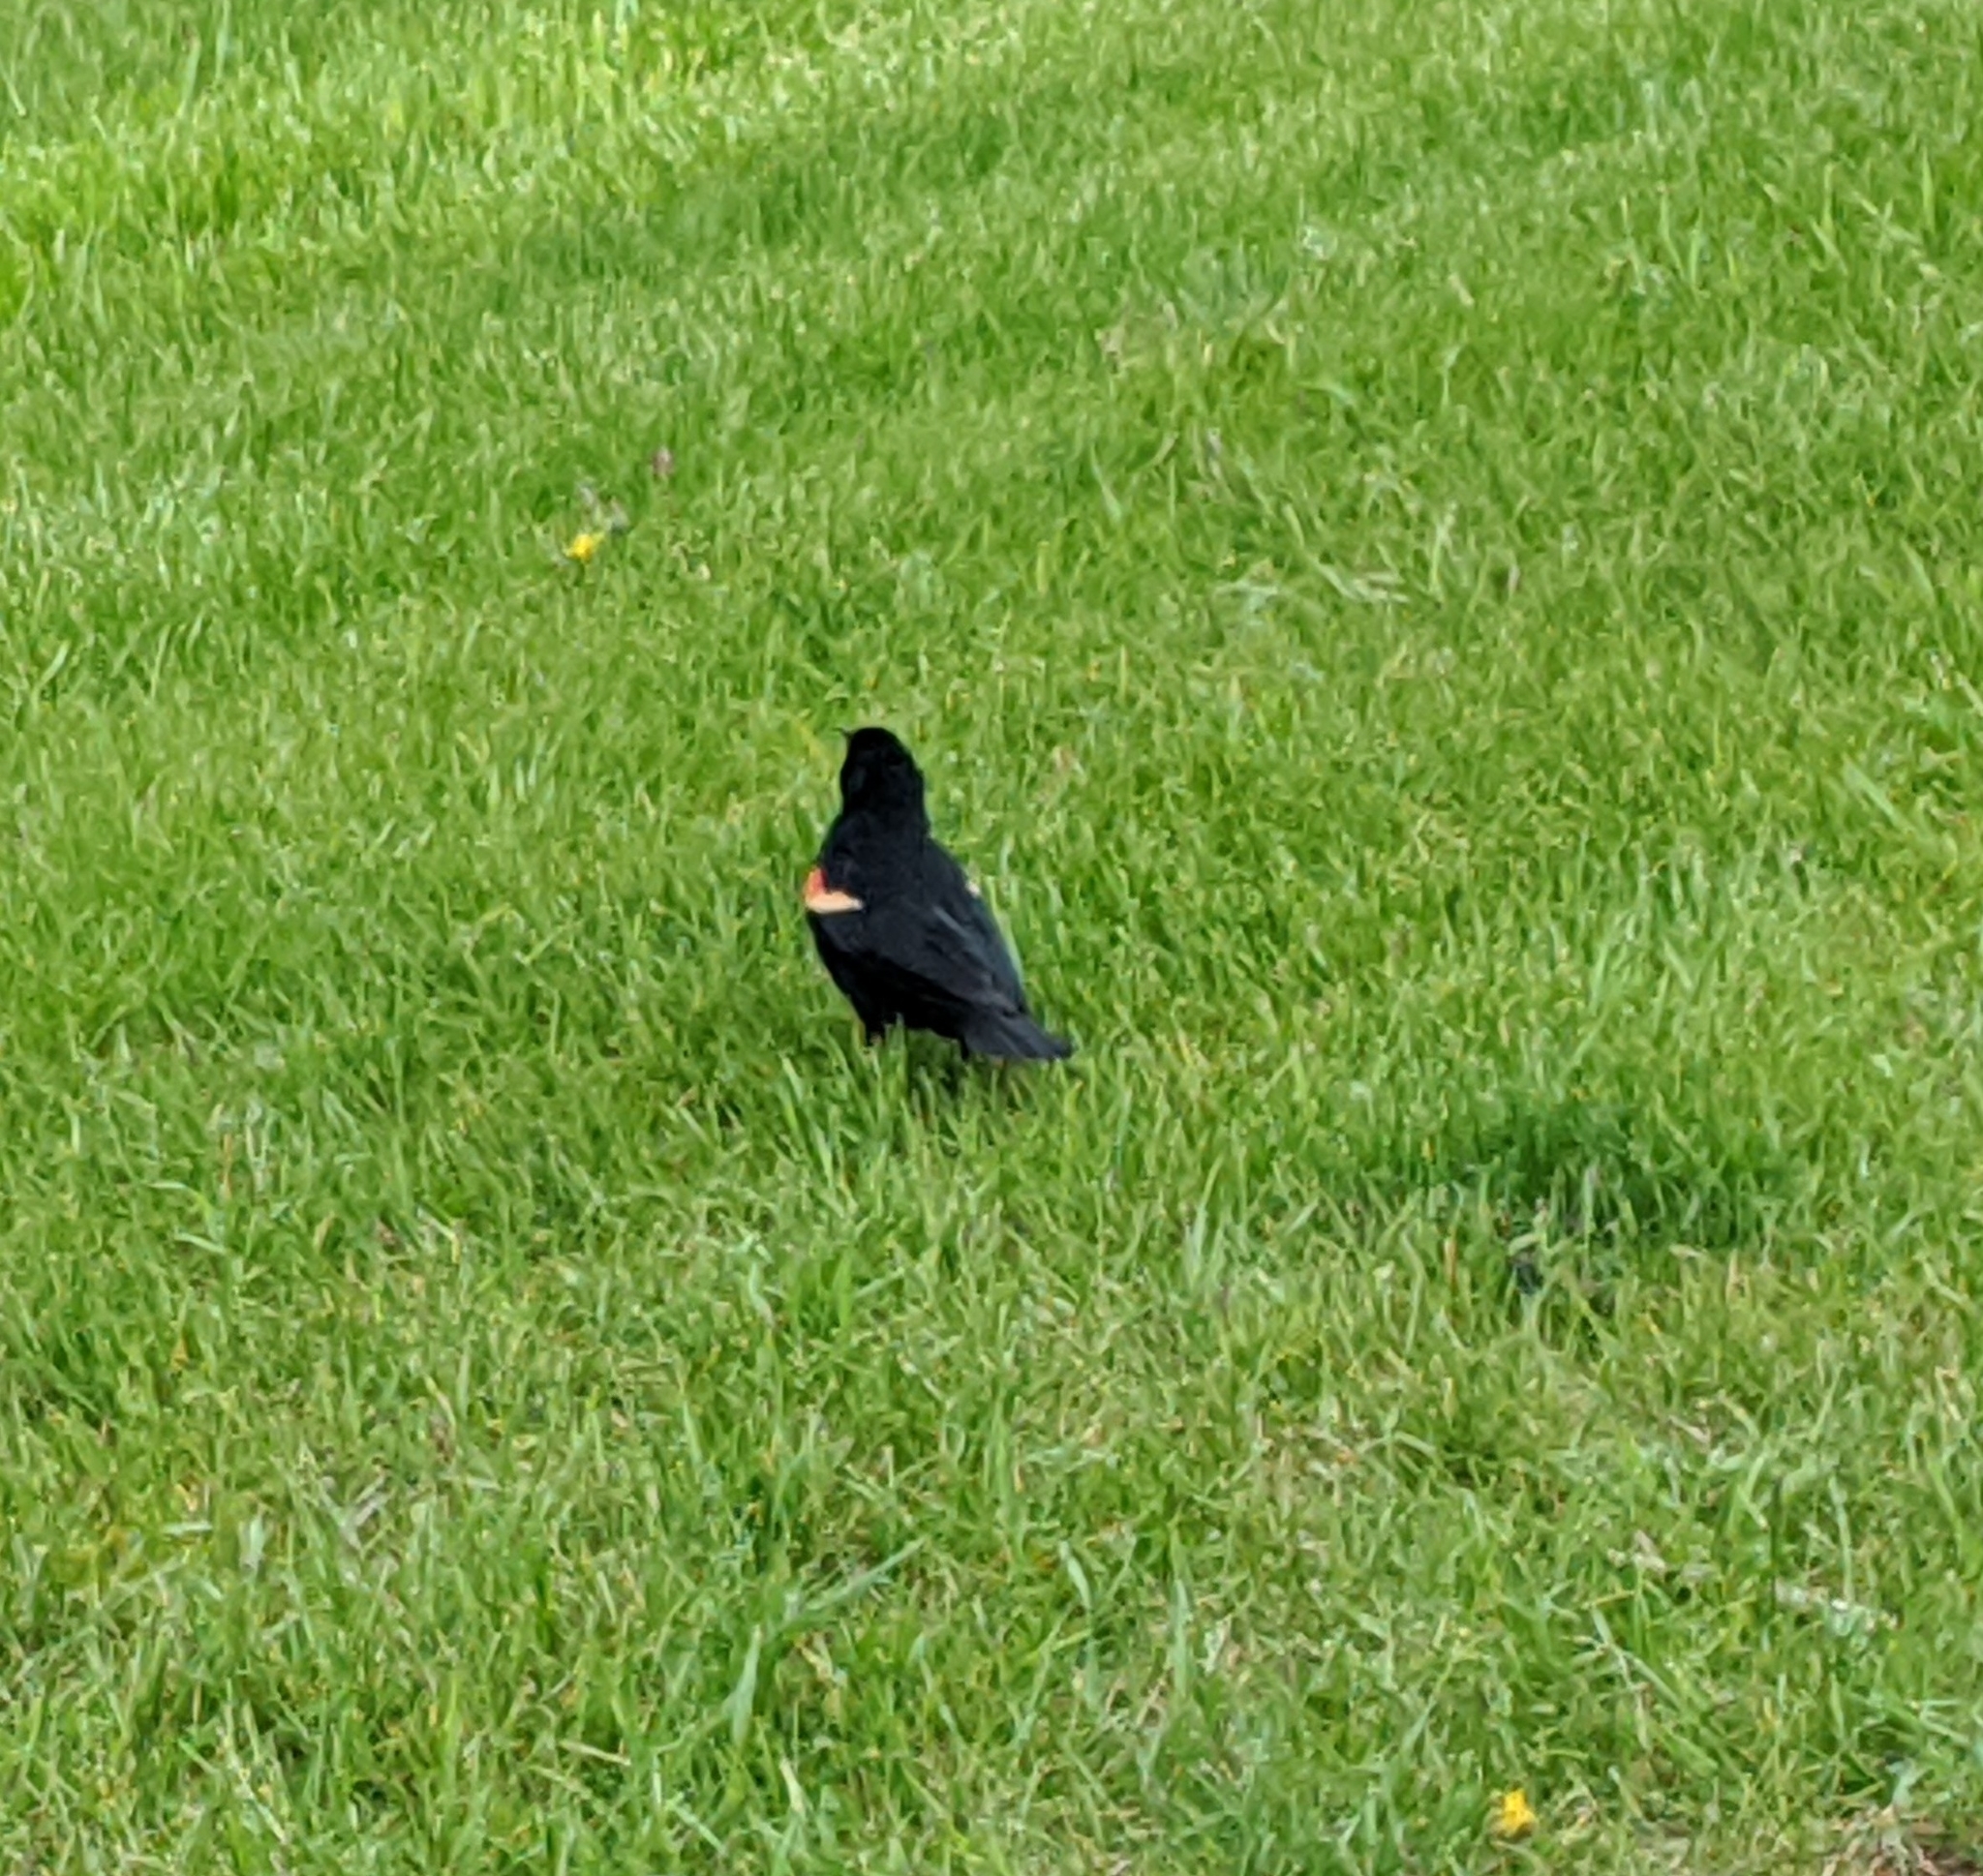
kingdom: Animalia
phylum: Chordata
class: Aves
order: Passeriformes
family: Icteridae
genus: Agelaius
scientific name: Agelaius phoeniceus
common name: Red-winged blackbird
